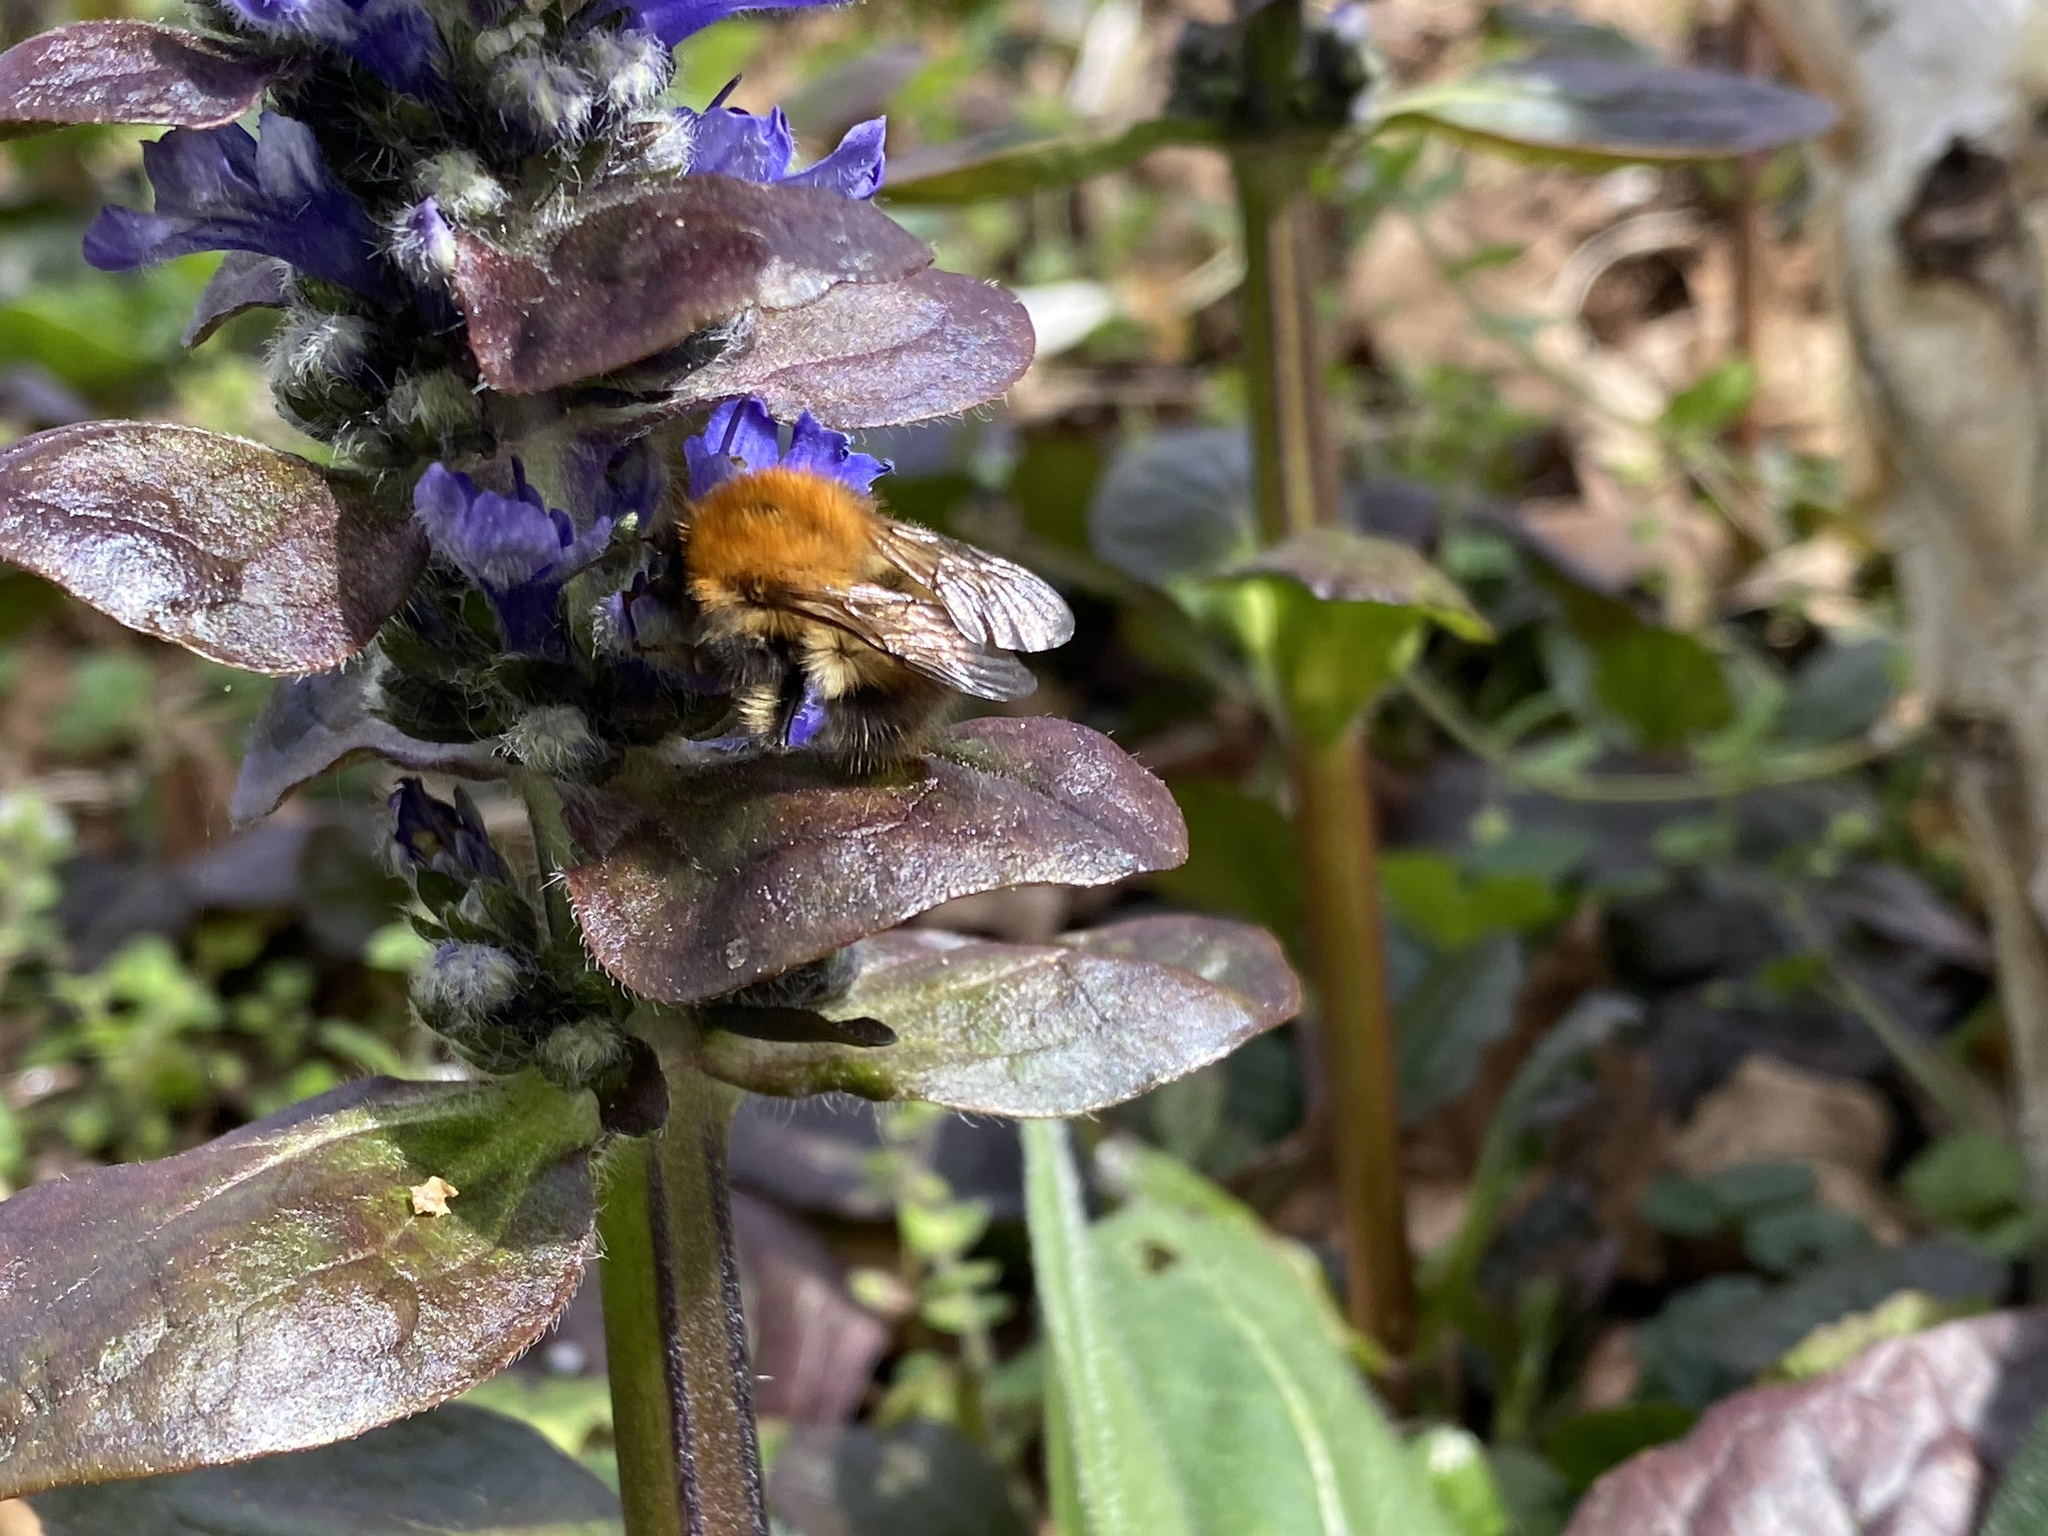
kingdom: Animalia
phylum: Arthropoda
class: Insecta
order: Hymenoptera
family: Apidae
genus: Bombus
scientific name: Bombus pascuorum
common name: Common carder bee
